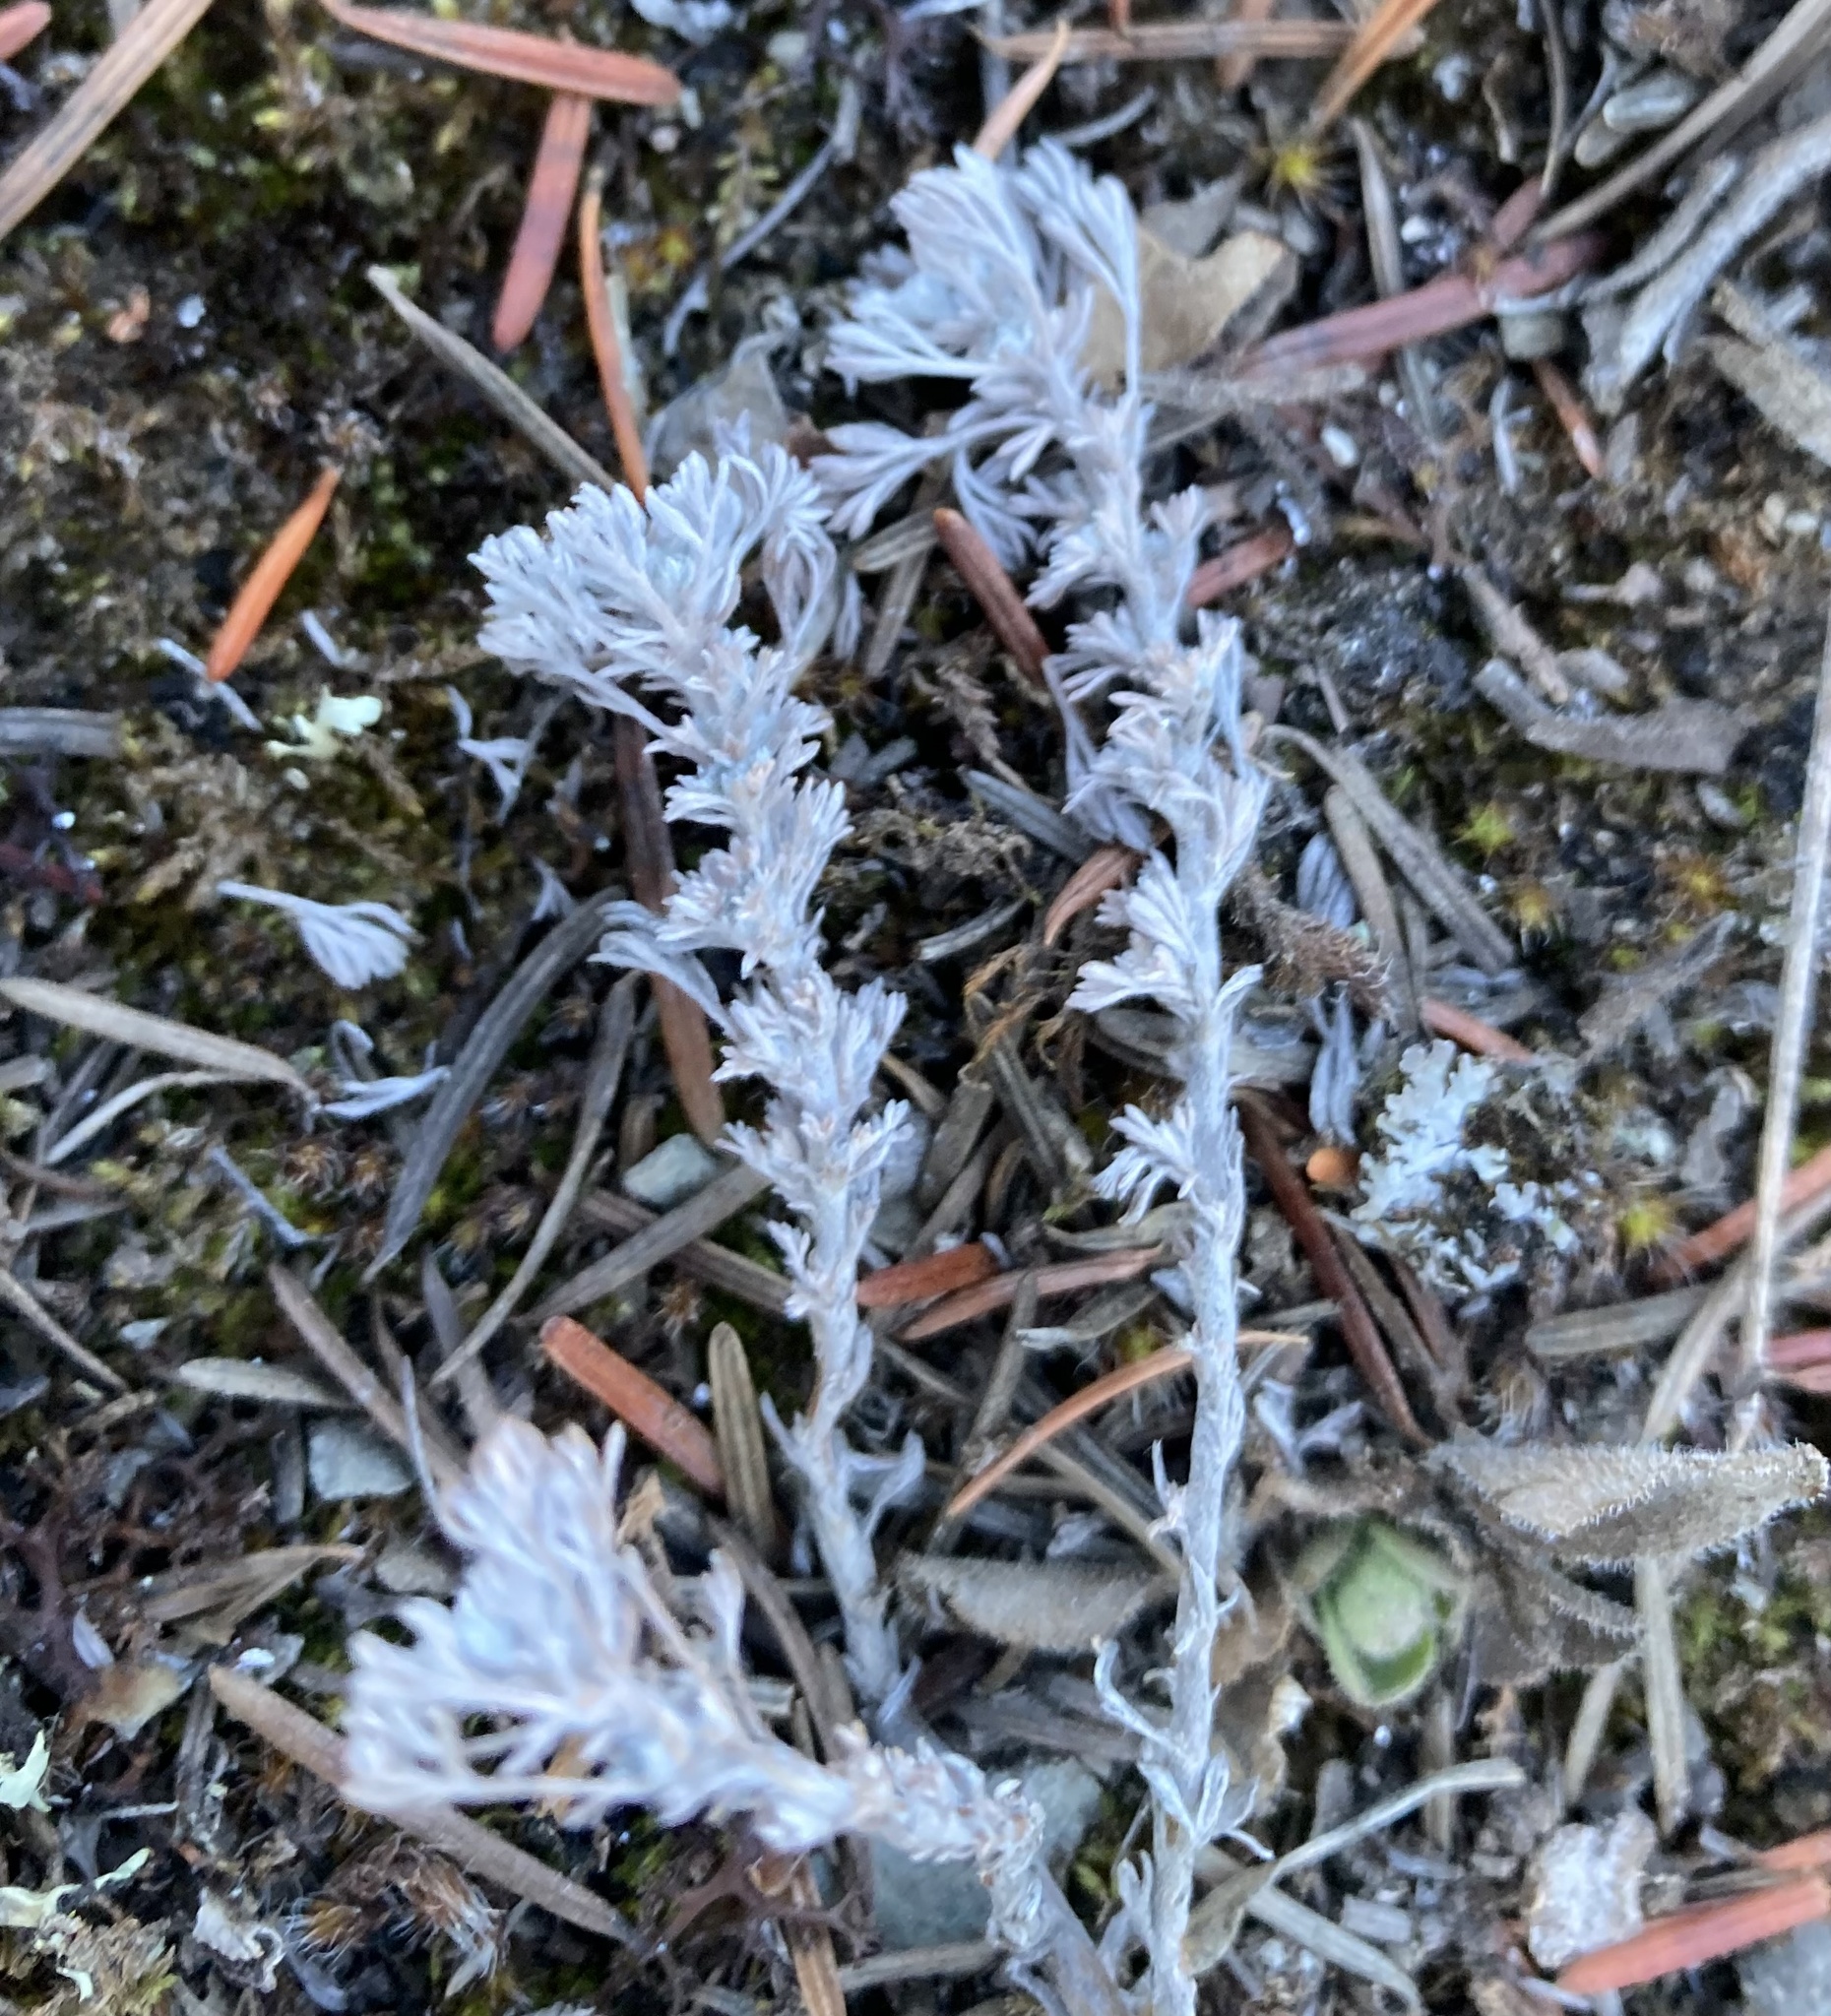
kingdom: Plantae
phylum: Tracheophyta
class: Magnoliopsida
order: Asterales
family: Asteraceae
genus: Artemisia
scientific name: Artemisia frigida
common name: Prairie sagewort
